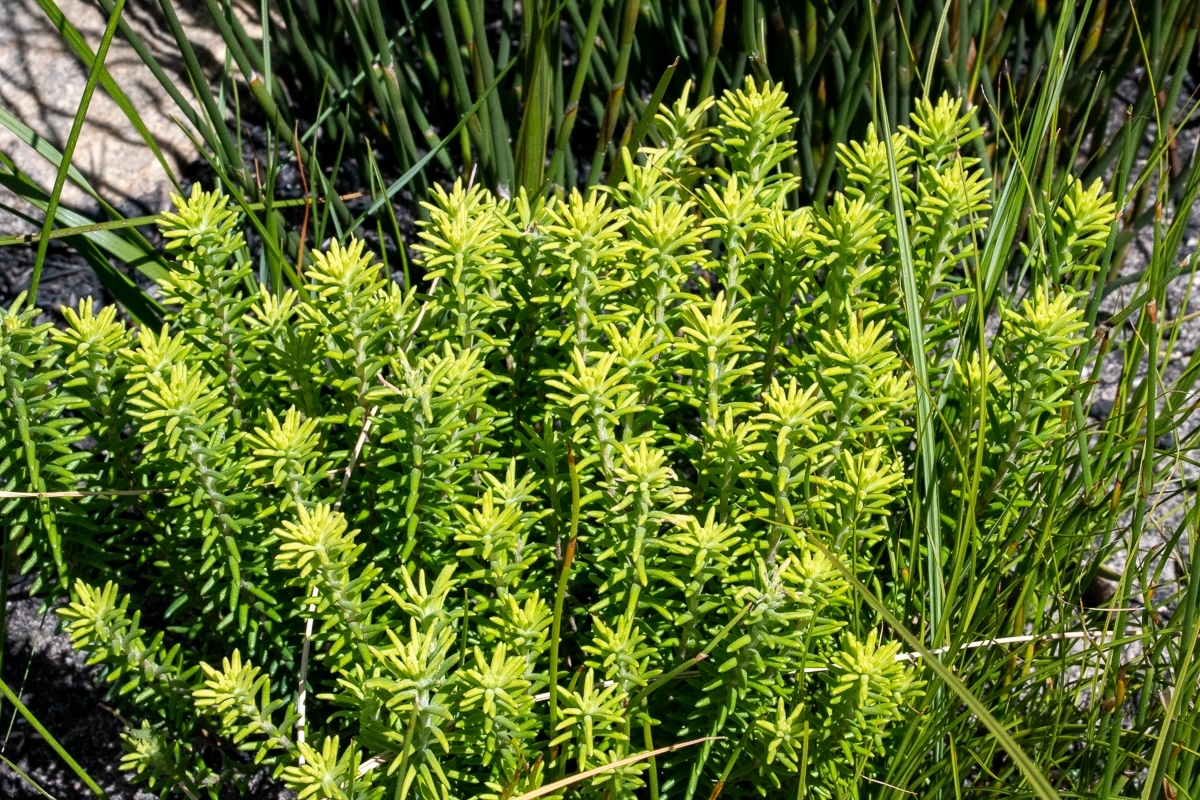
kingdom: Plantae
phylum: Tracheophyta
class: Magnoliopsida
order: Lamiales
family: Stilbaceae
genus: Campylostachys
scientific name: Campylostachys cernua
